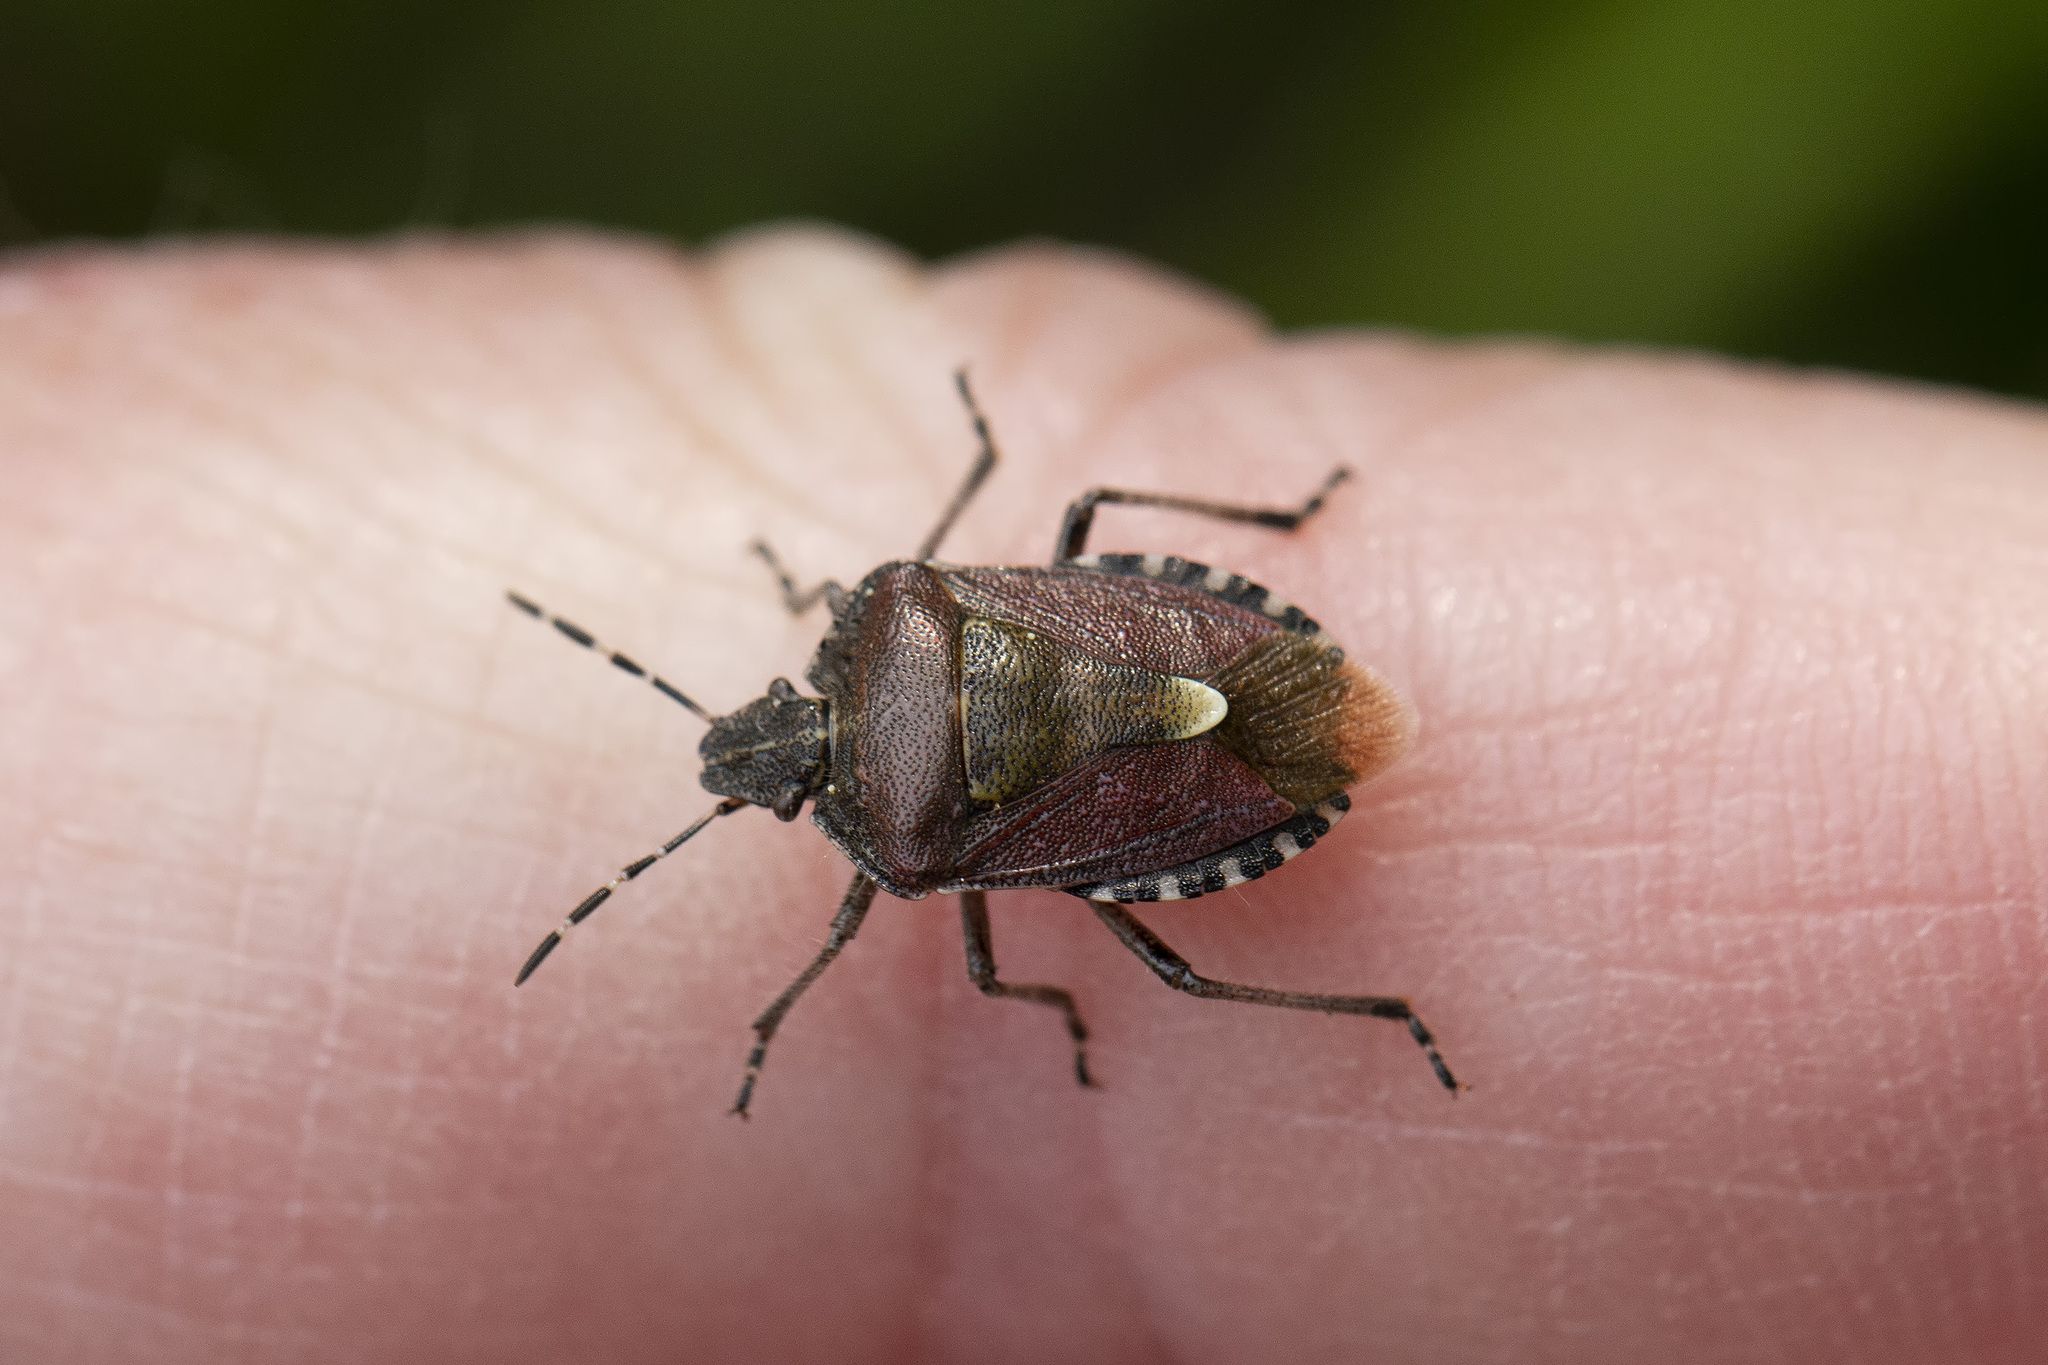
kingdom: Animalia
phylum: Arthropoda
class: Insecta
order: Hemiptera
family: Pentatomidae
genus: Dolycoris
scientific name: Dolycoris baccarum
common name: Sloe bug
